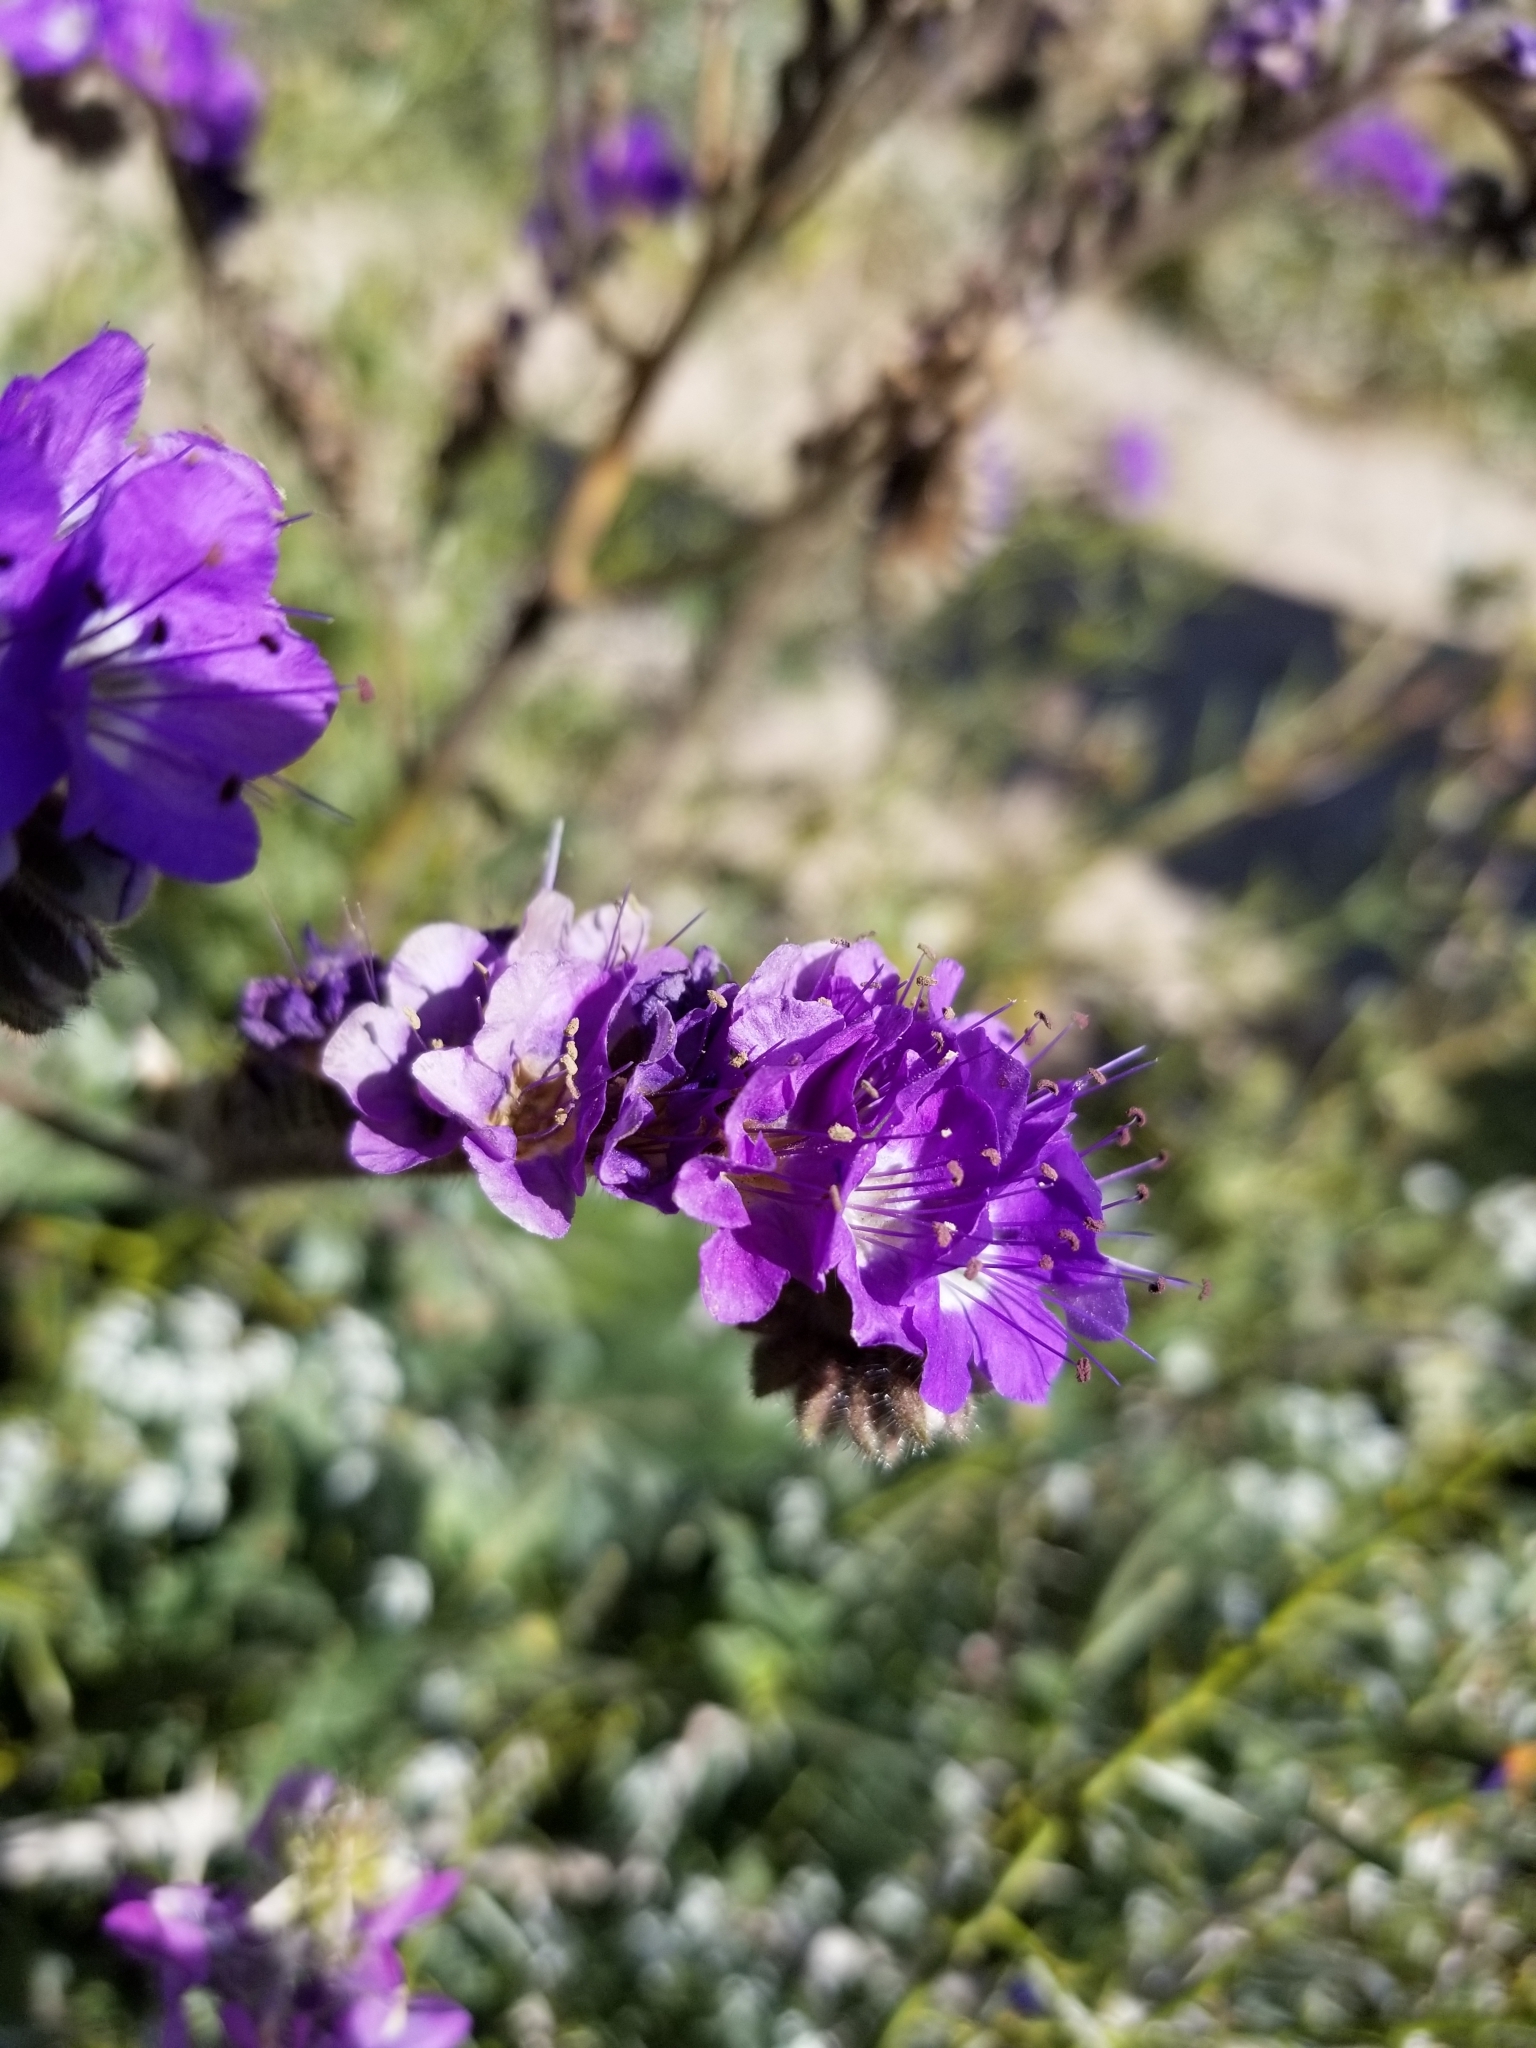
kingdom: Plantae
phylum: Tracheophyta
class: Magnoliopsida
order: Boraginales
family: Hydrophyllaceae
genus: Phacelia
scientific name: Phacelia crenulata
